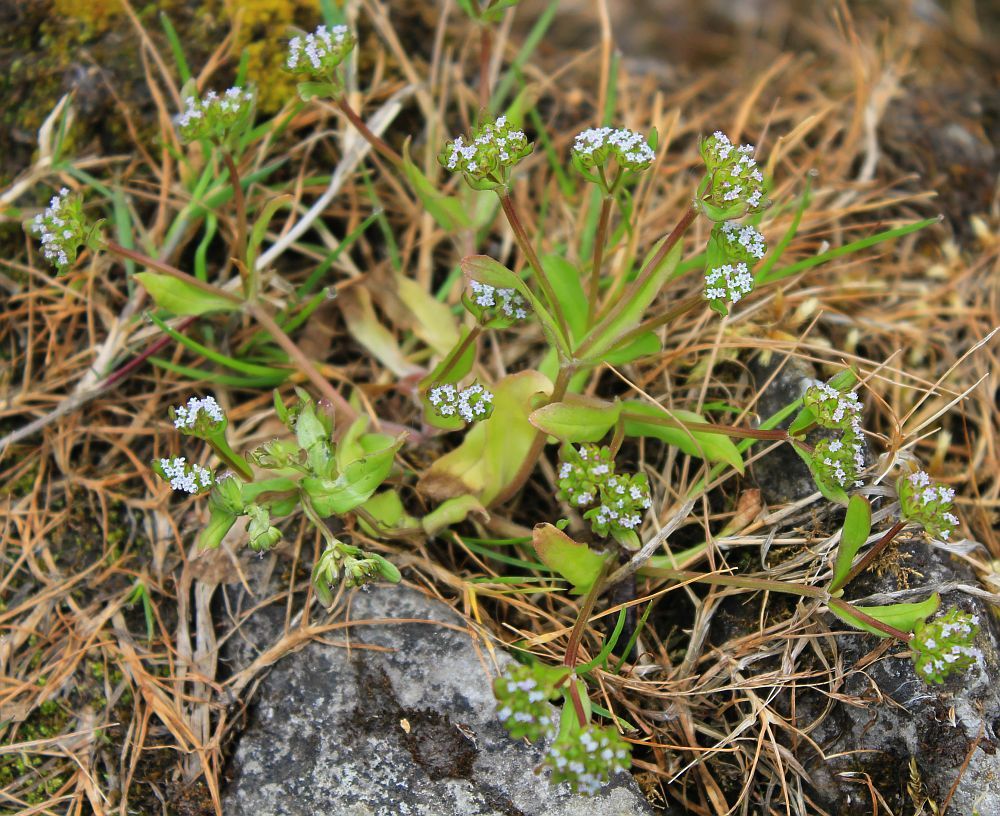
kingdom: Plantae
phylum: Tracheophyta
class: Magnoliopsida
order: Dipsacales
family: Caprifoliaceae
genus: Valerianella
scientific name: Valerianella locusta
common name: Common cornsalad
